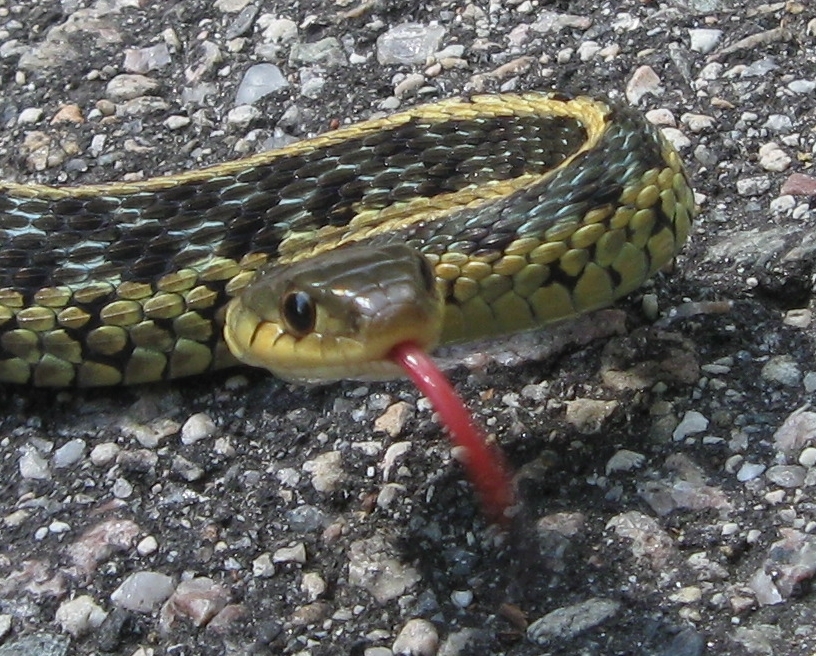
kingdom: Animalia
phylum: Chordata
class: Squamata
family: Colubridae
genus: Thamnophis
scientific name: Thamnophis sirtalis
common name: Common garter snake
